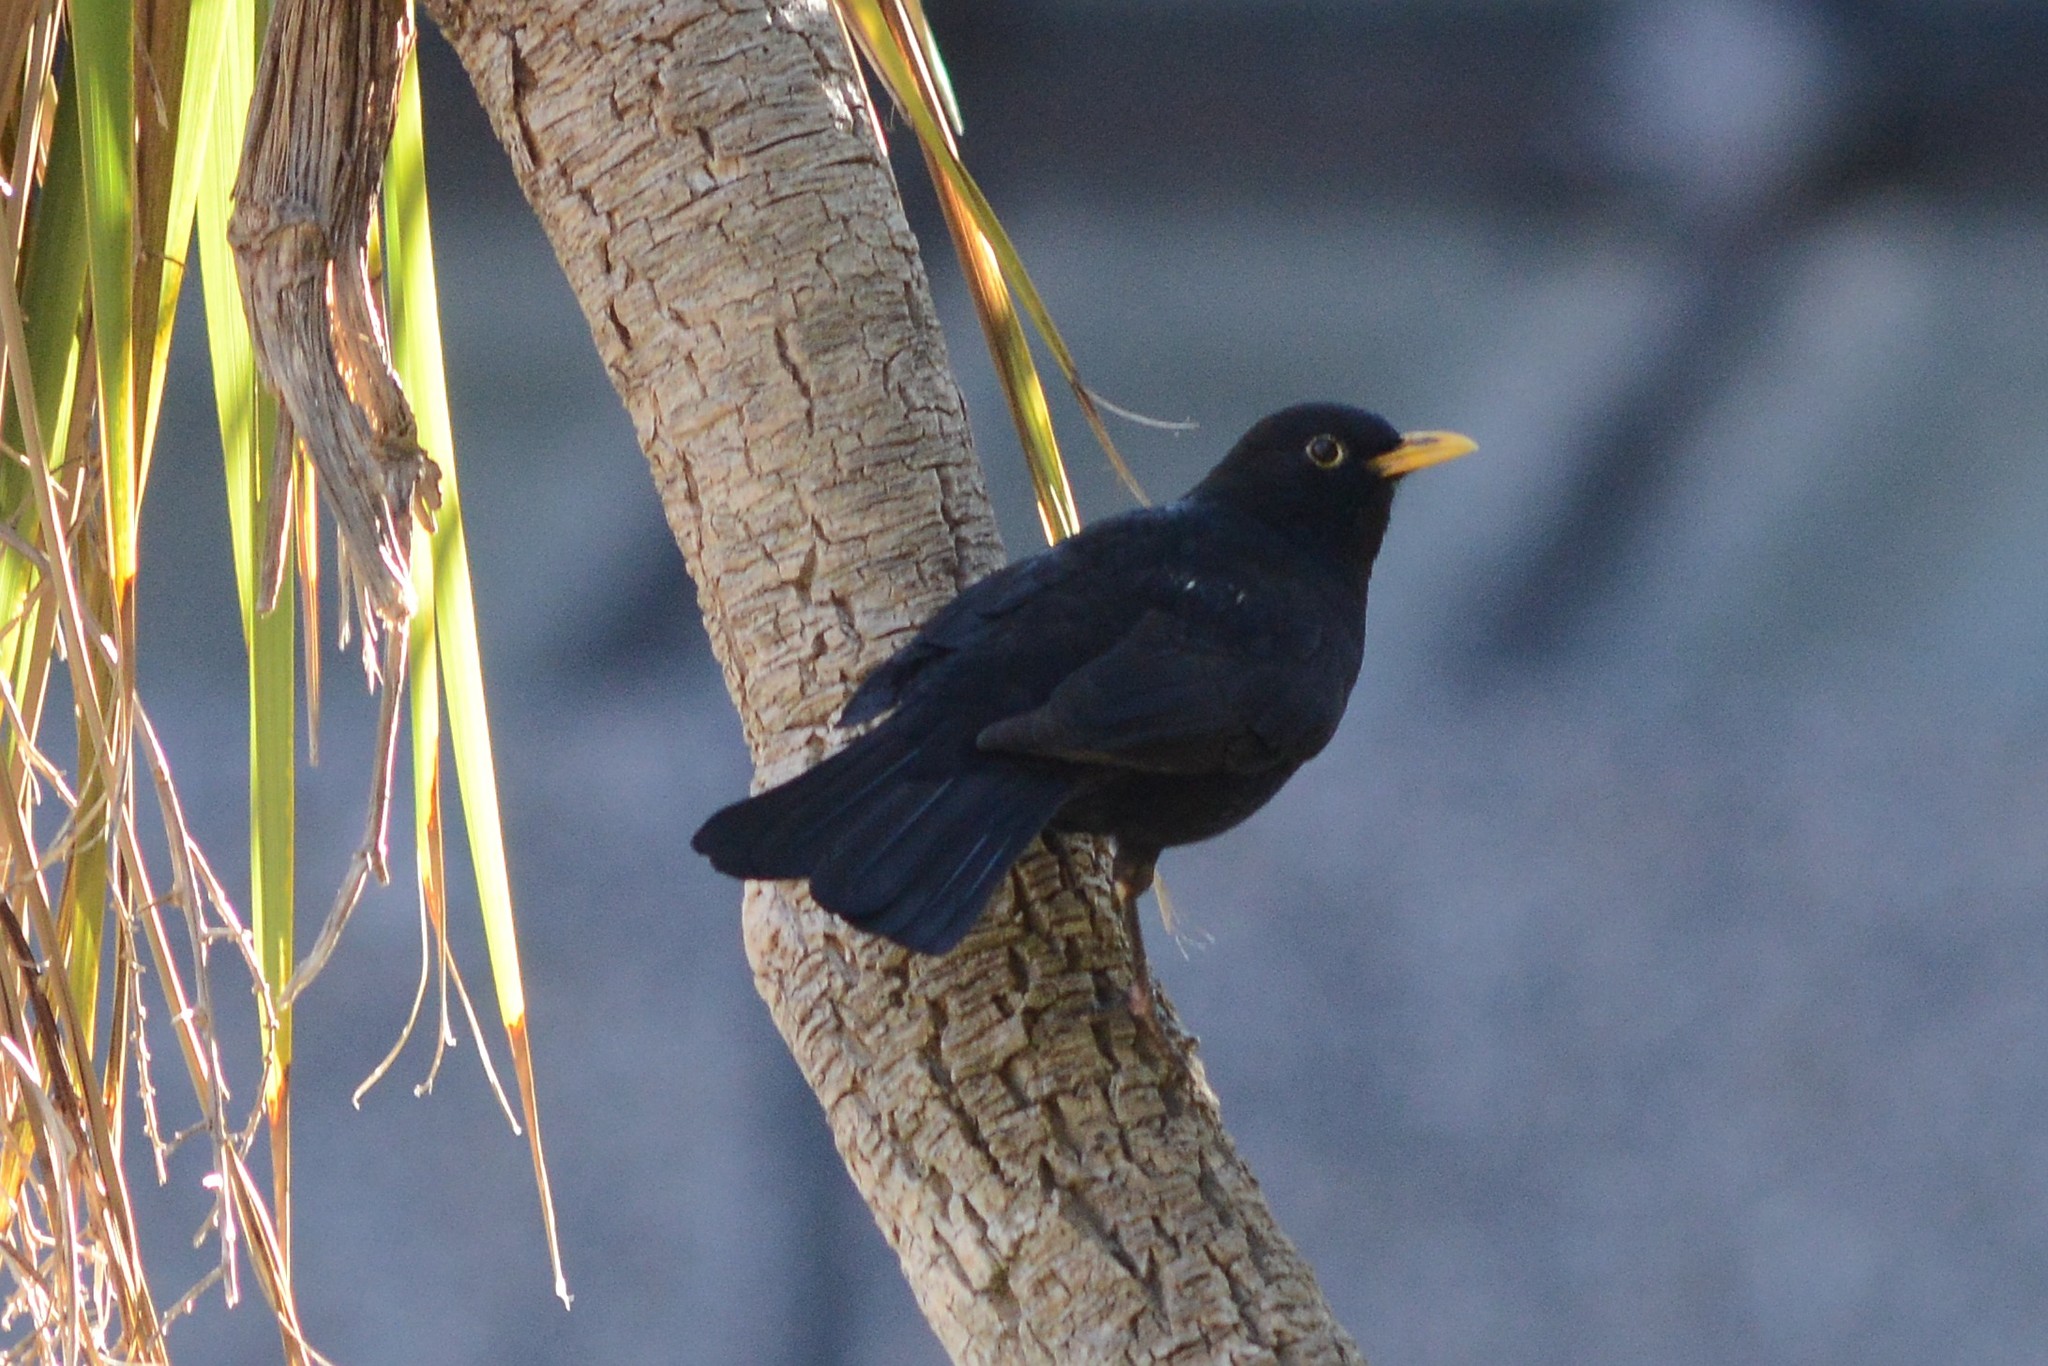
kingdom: Animalia
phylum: Chordata
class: Aves
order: Passeriformes
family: Turdidae
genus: Turdus
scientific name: Turdus merula
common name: Common blackbird
